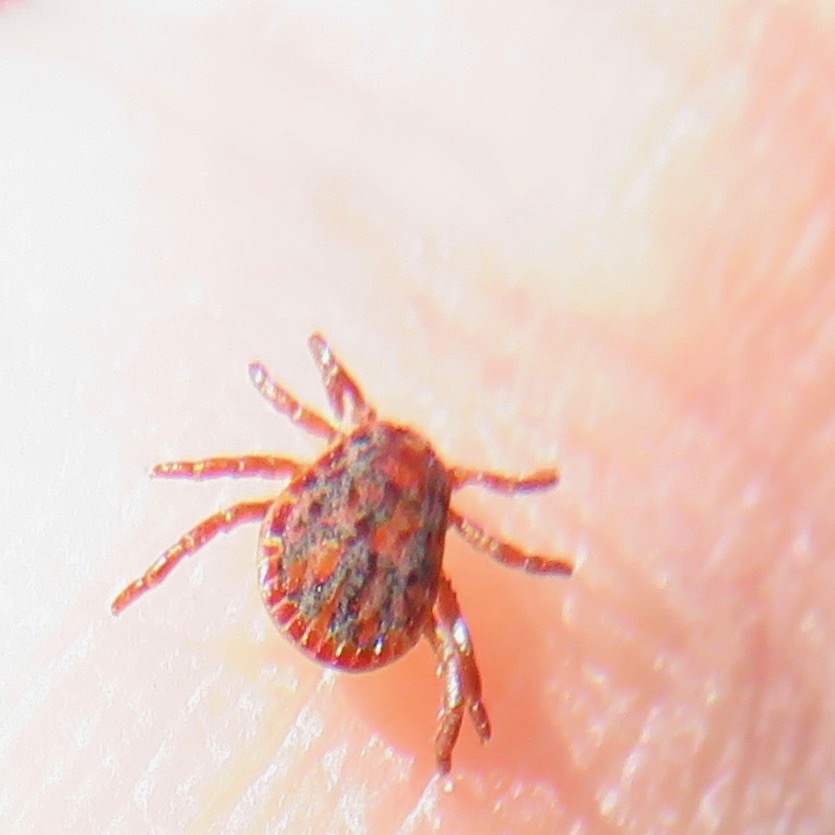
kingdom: Animalia
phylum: Arthropoda
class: Arachnida
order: Ixodida
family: Ixodidae
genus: Dermacentor
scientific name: Dermacentor occidentalis
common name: Net tick
